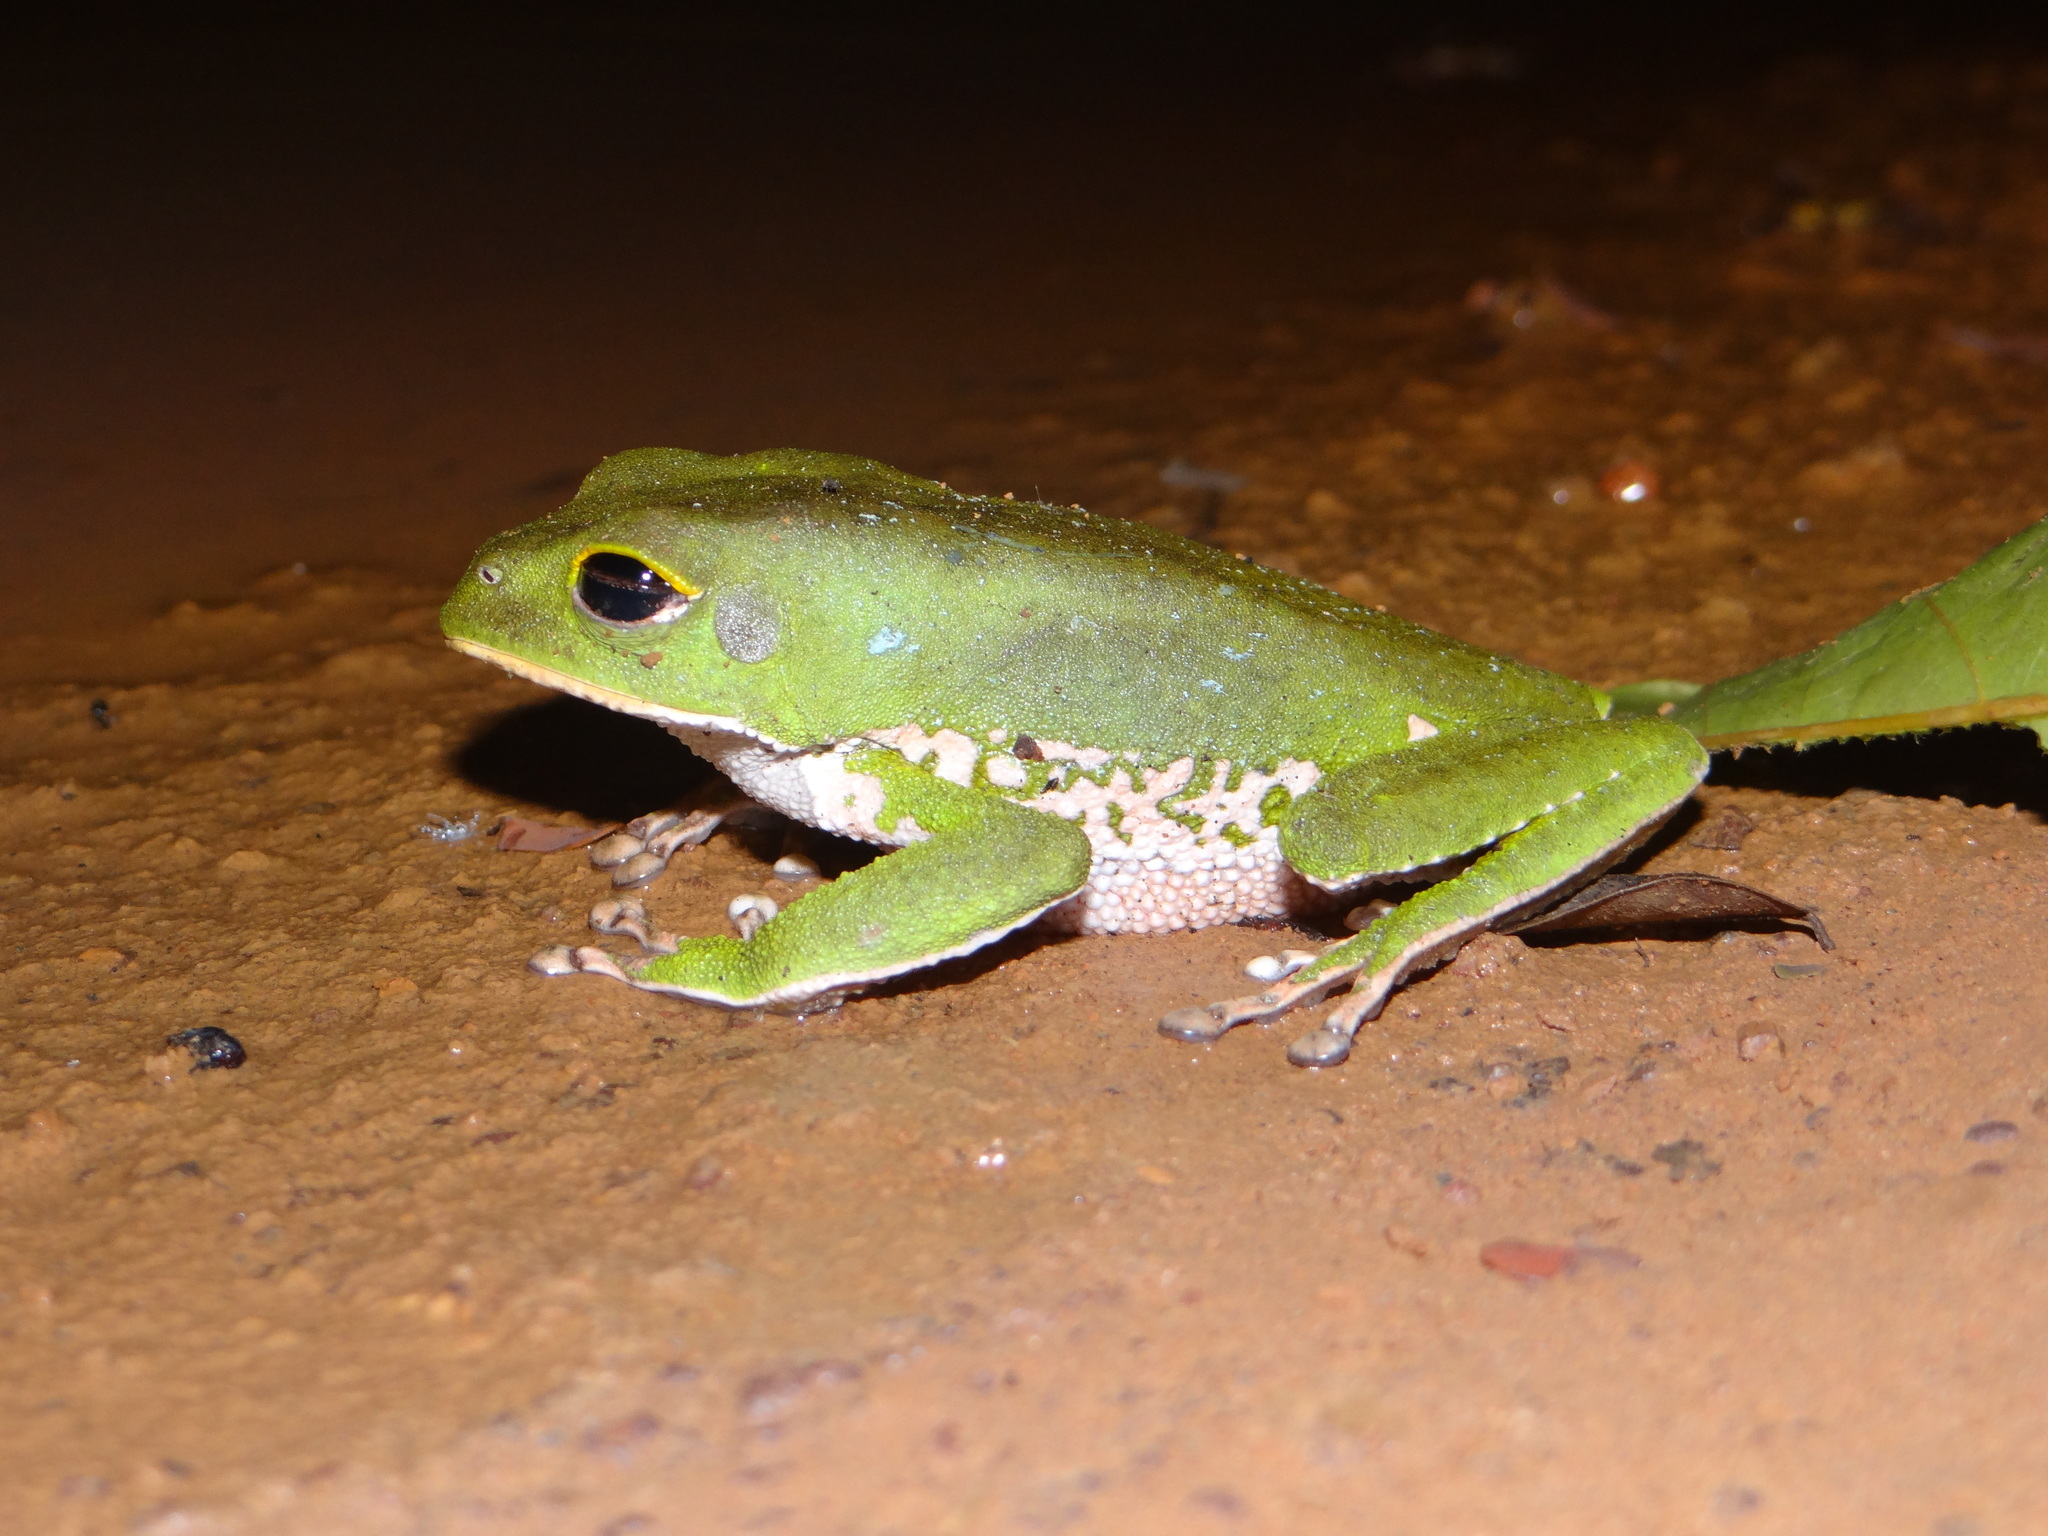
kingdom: Animalia
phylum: Chordata
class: Amphibia
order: Anura
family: Phyllomedusidae
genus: Phyllomedusa
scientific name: Phyllomedusa camba
